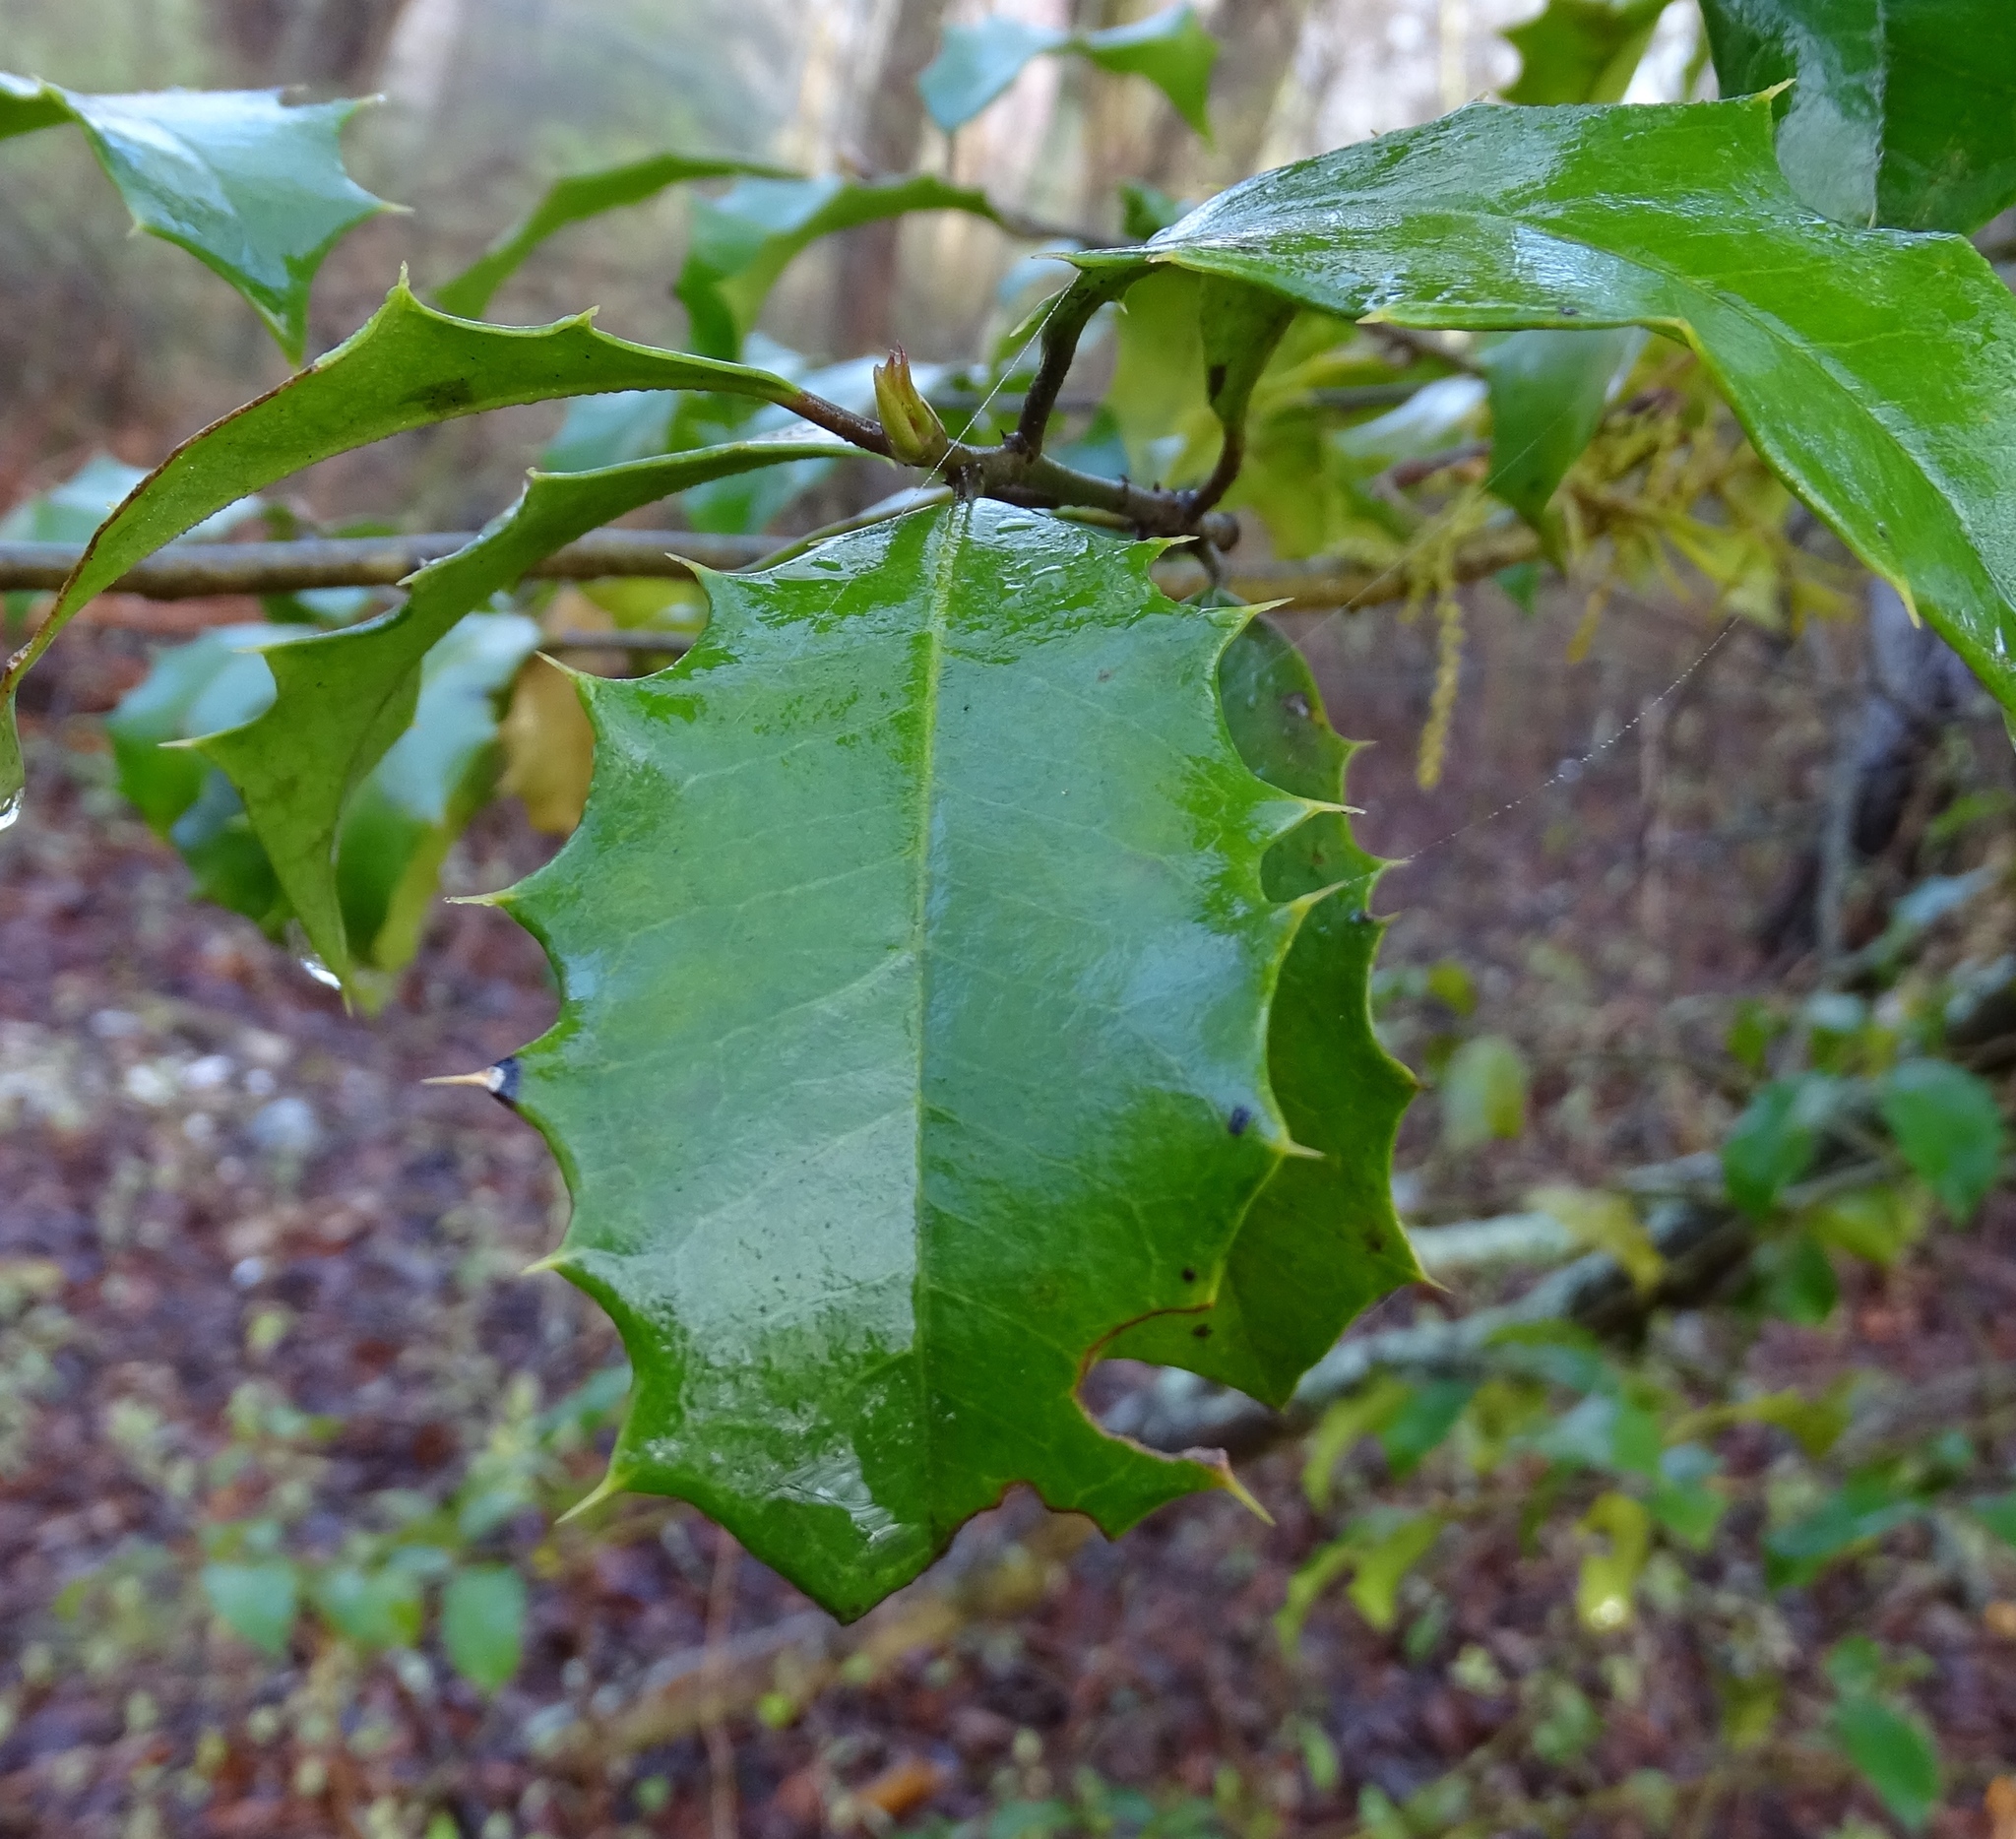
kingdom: Plantae
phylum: Tracheophyta
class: Magnoliopsida
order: Aquifoliales
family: Aquifoliaceae
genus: Ilex
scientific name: Ilex opaca
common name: American holly
